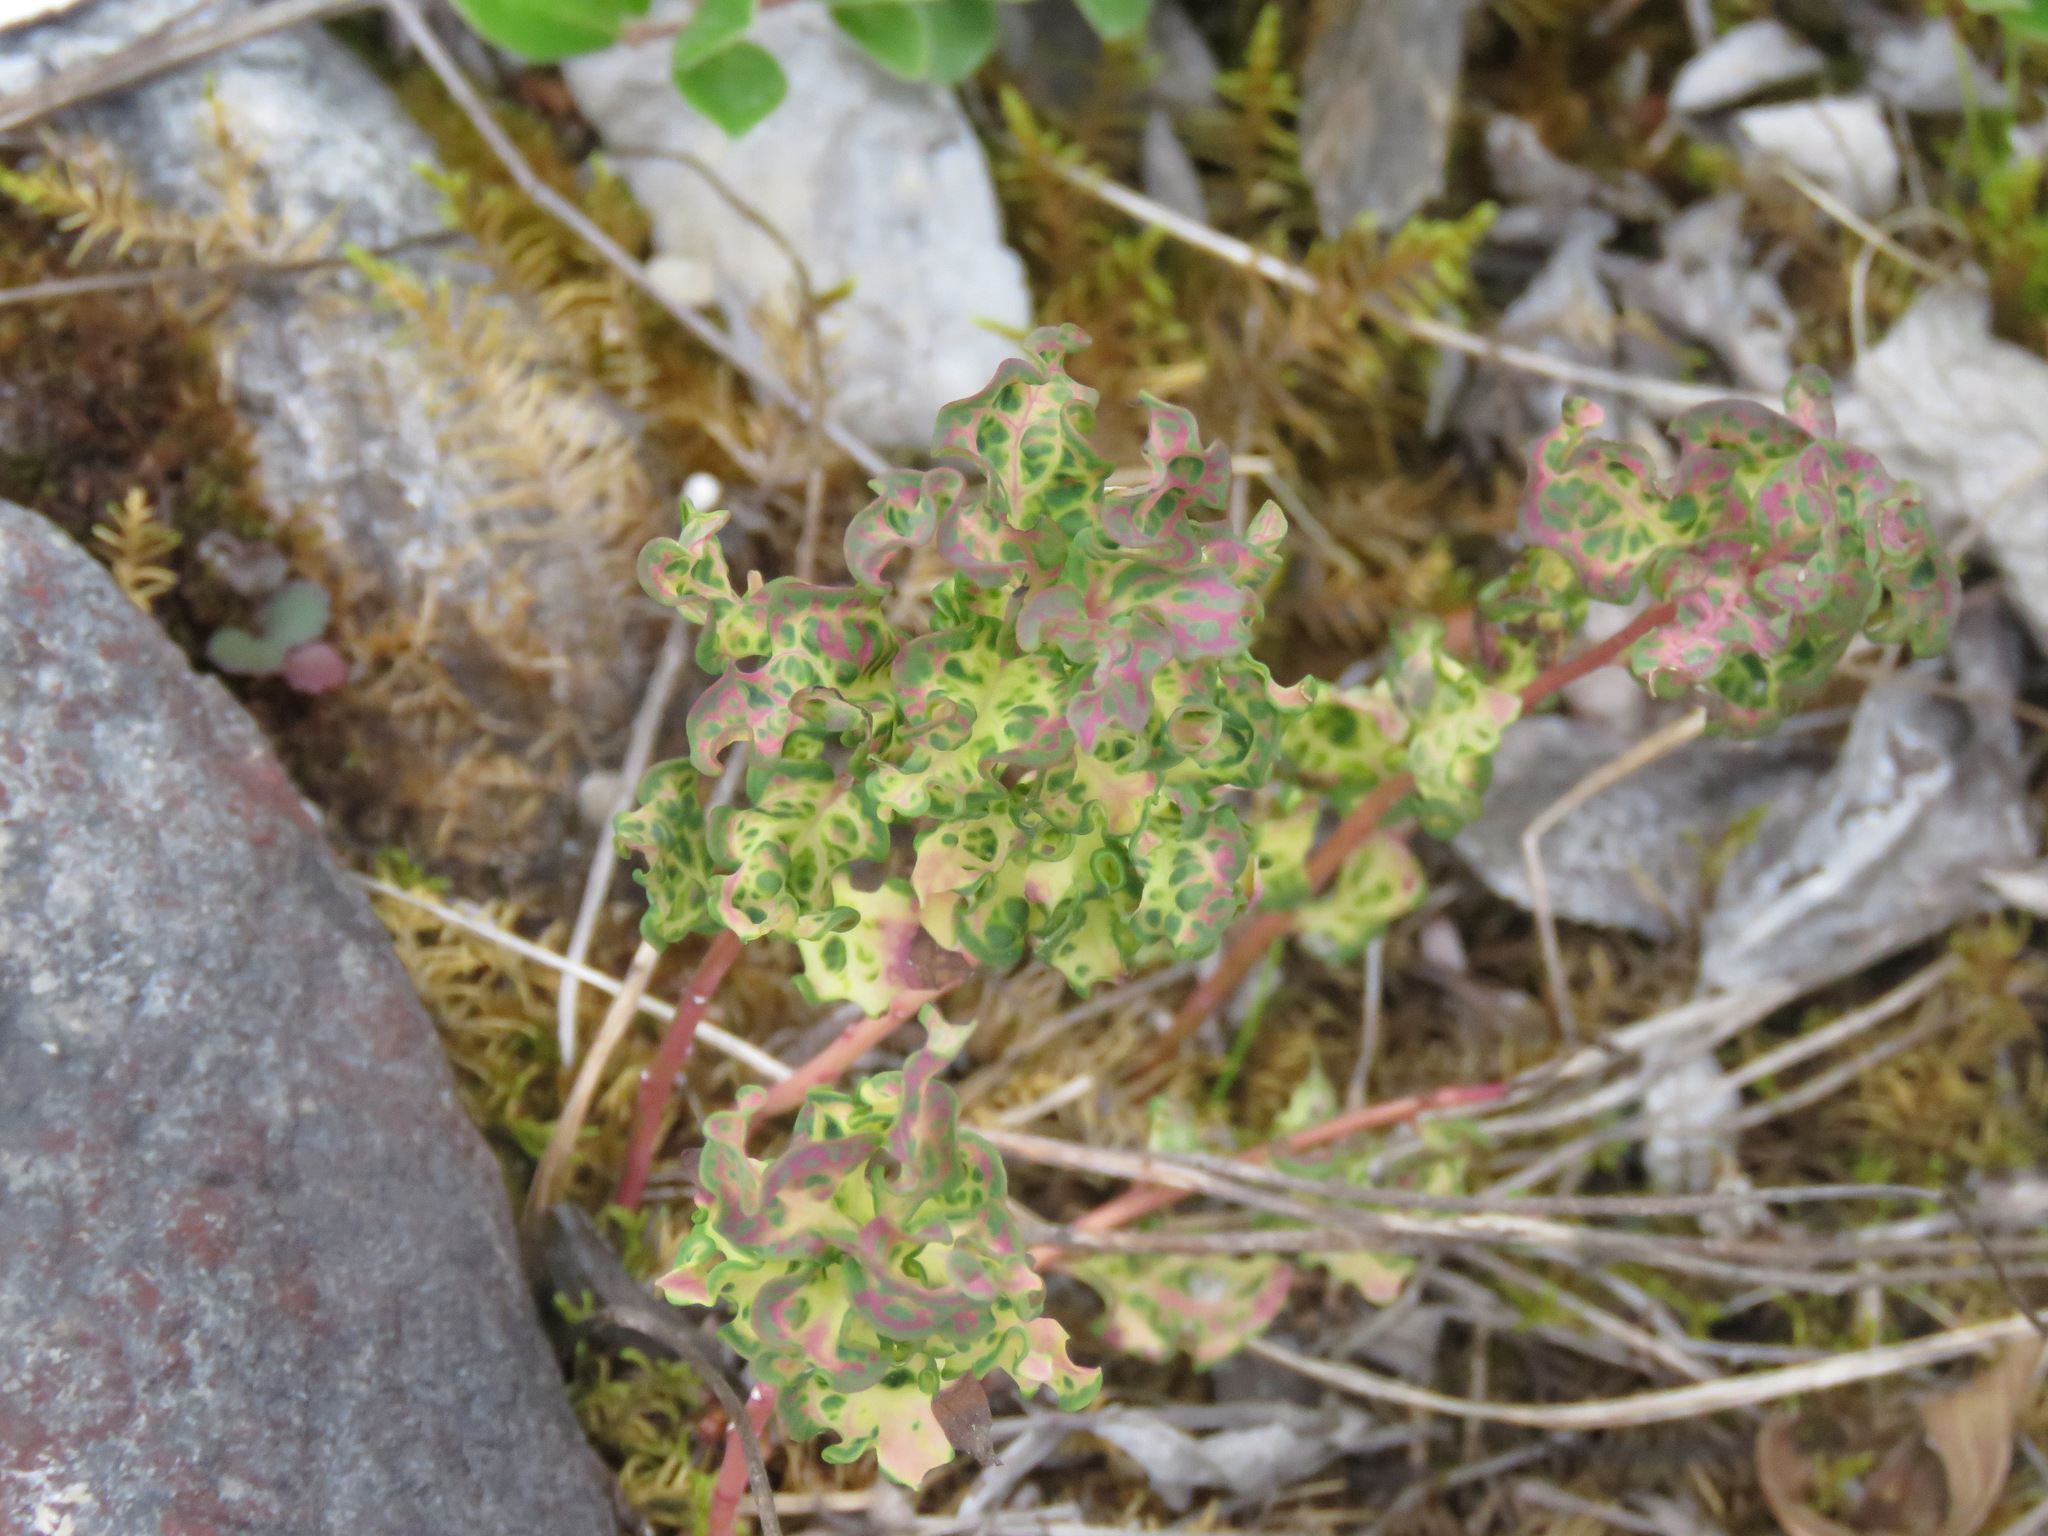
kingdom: Plantae
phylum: Tracheophyta
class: Magnoliopsida
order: Santalales
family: Comandraceae
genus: Geocaulon
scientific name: Geocaulon lividum
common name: Earthberry
